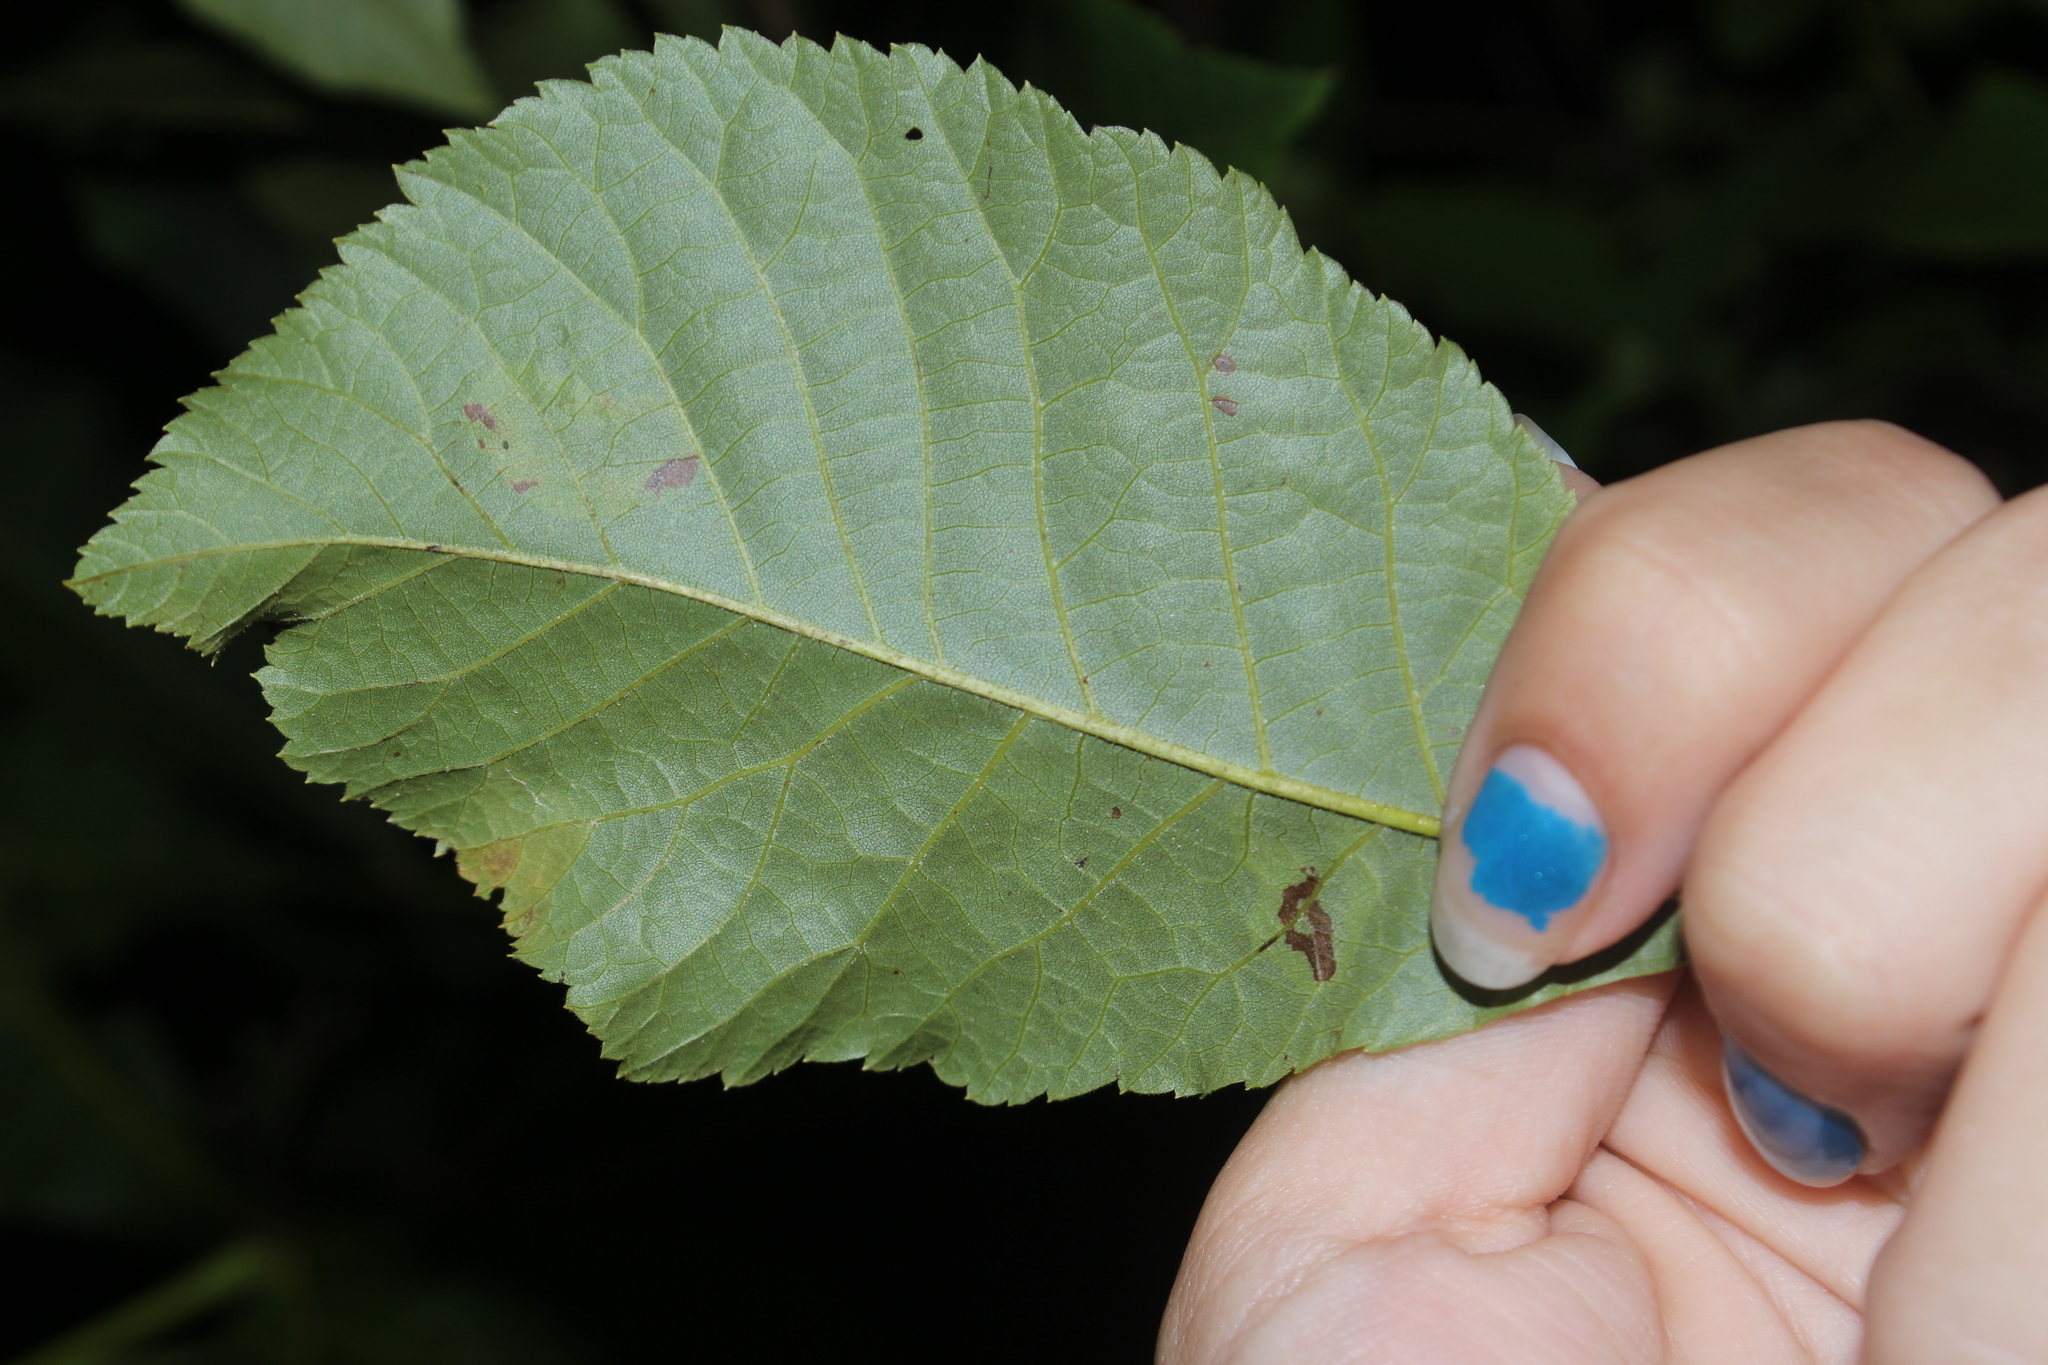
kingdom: Animalia
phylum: Arthropoda
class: Insecta
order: Lepidoptera
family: Gracillariidae
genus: Cameraria
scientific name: Cameraria caryaefoliella
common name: Pecan leafminer moth
